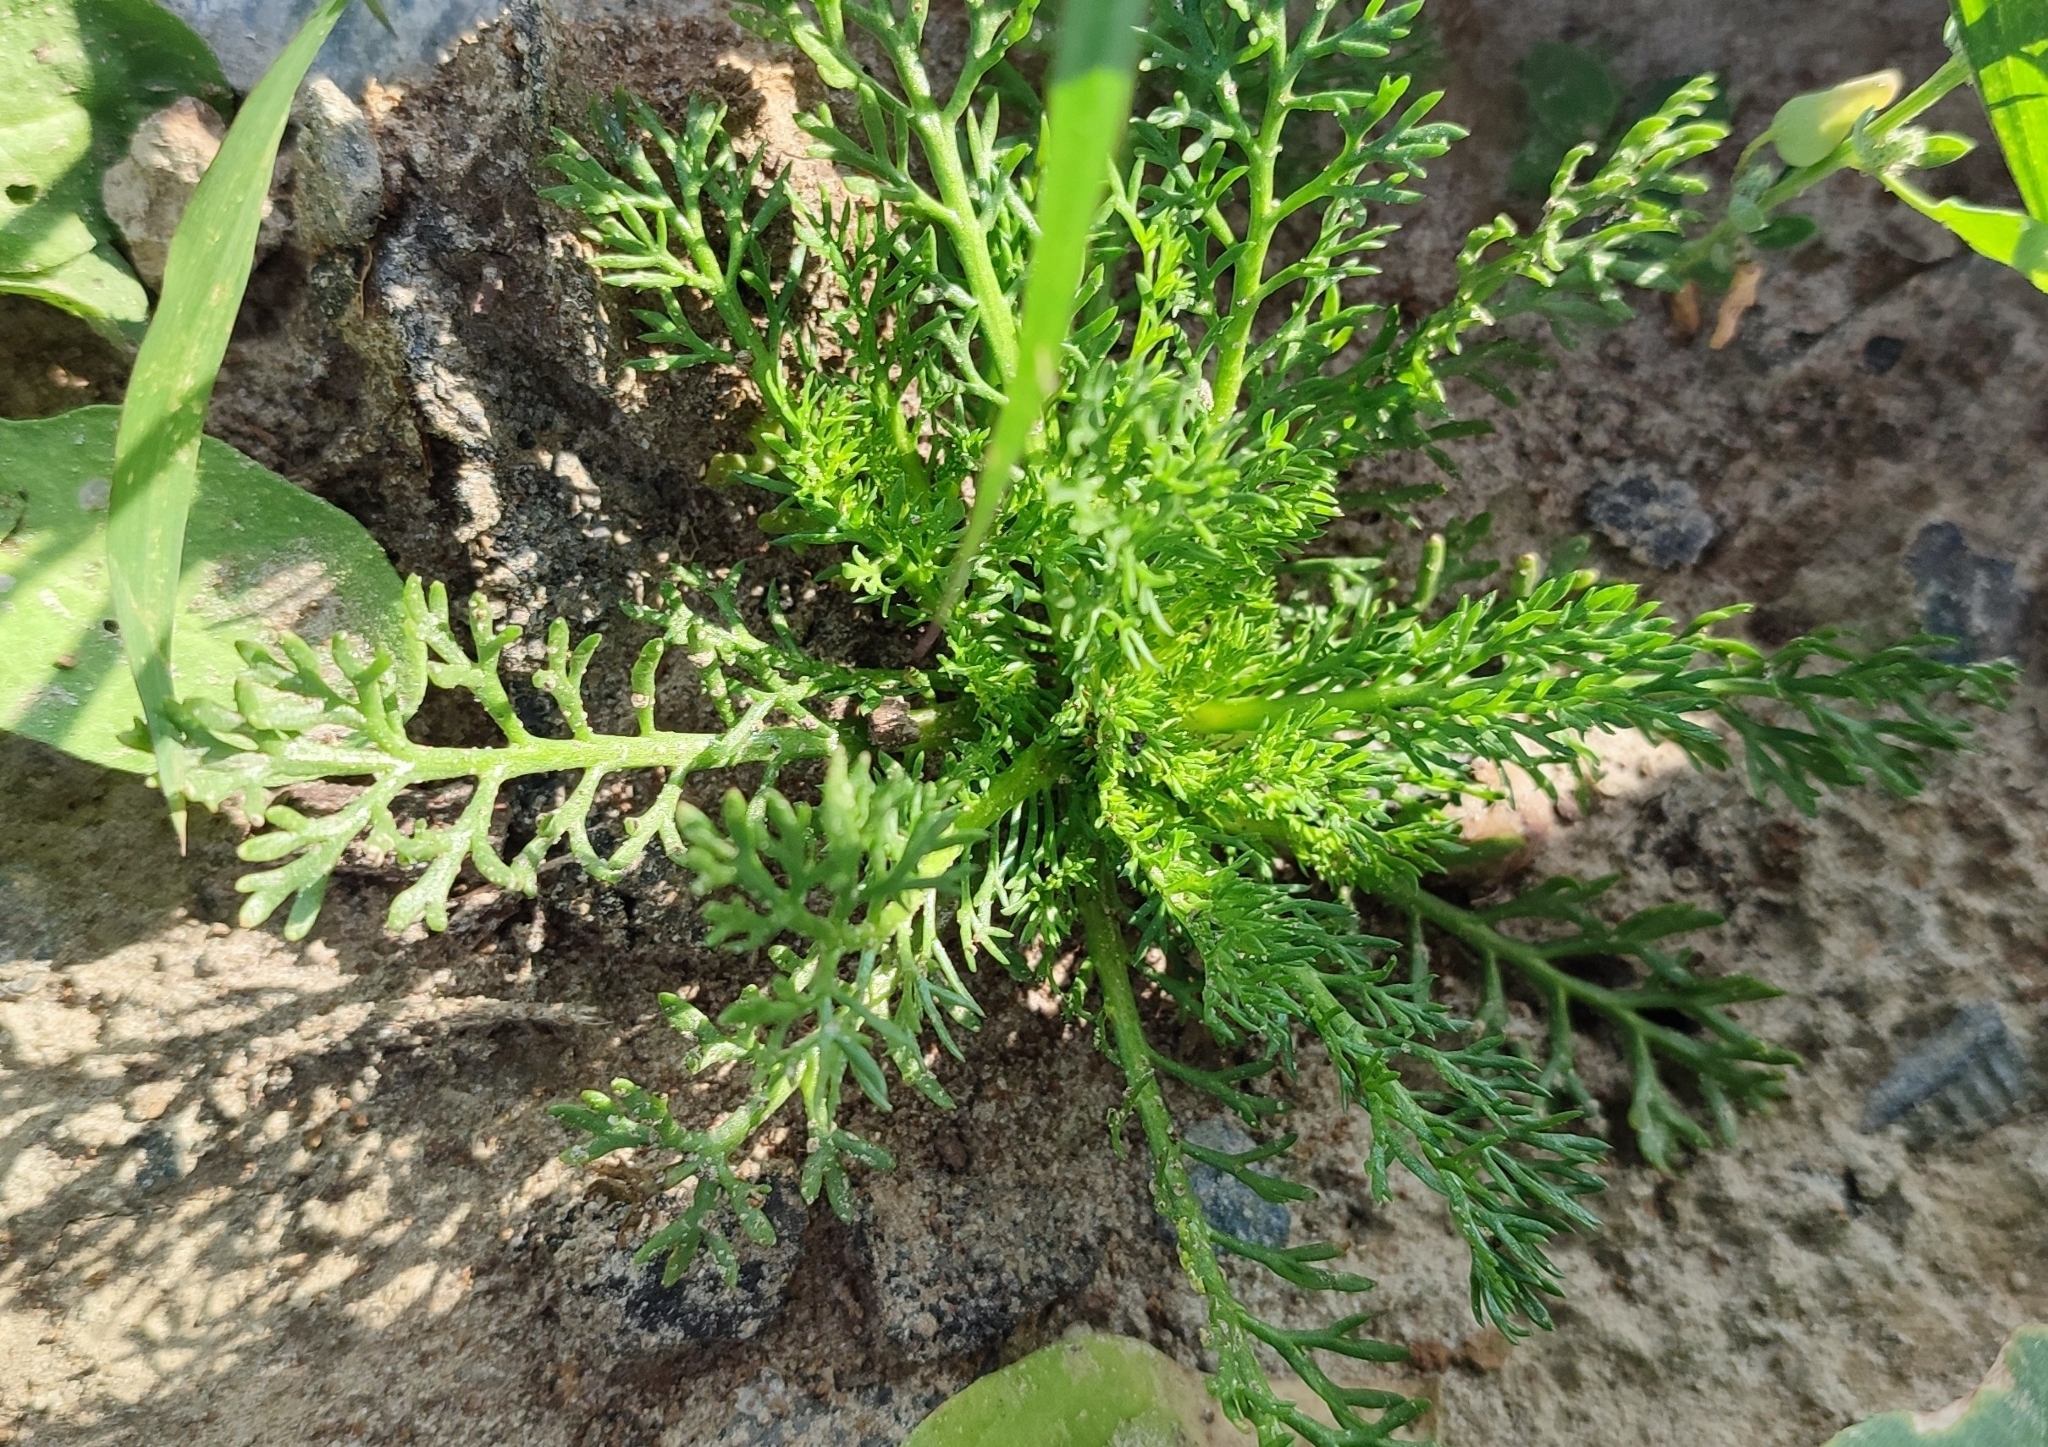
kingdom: Plantae
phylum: Tracheophyta
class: Magnoliopsida
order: Asterales
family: Asteraceae
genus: Tripleurospermum
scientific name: Tripleurospermum inodorum
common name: Scentless mayweed
